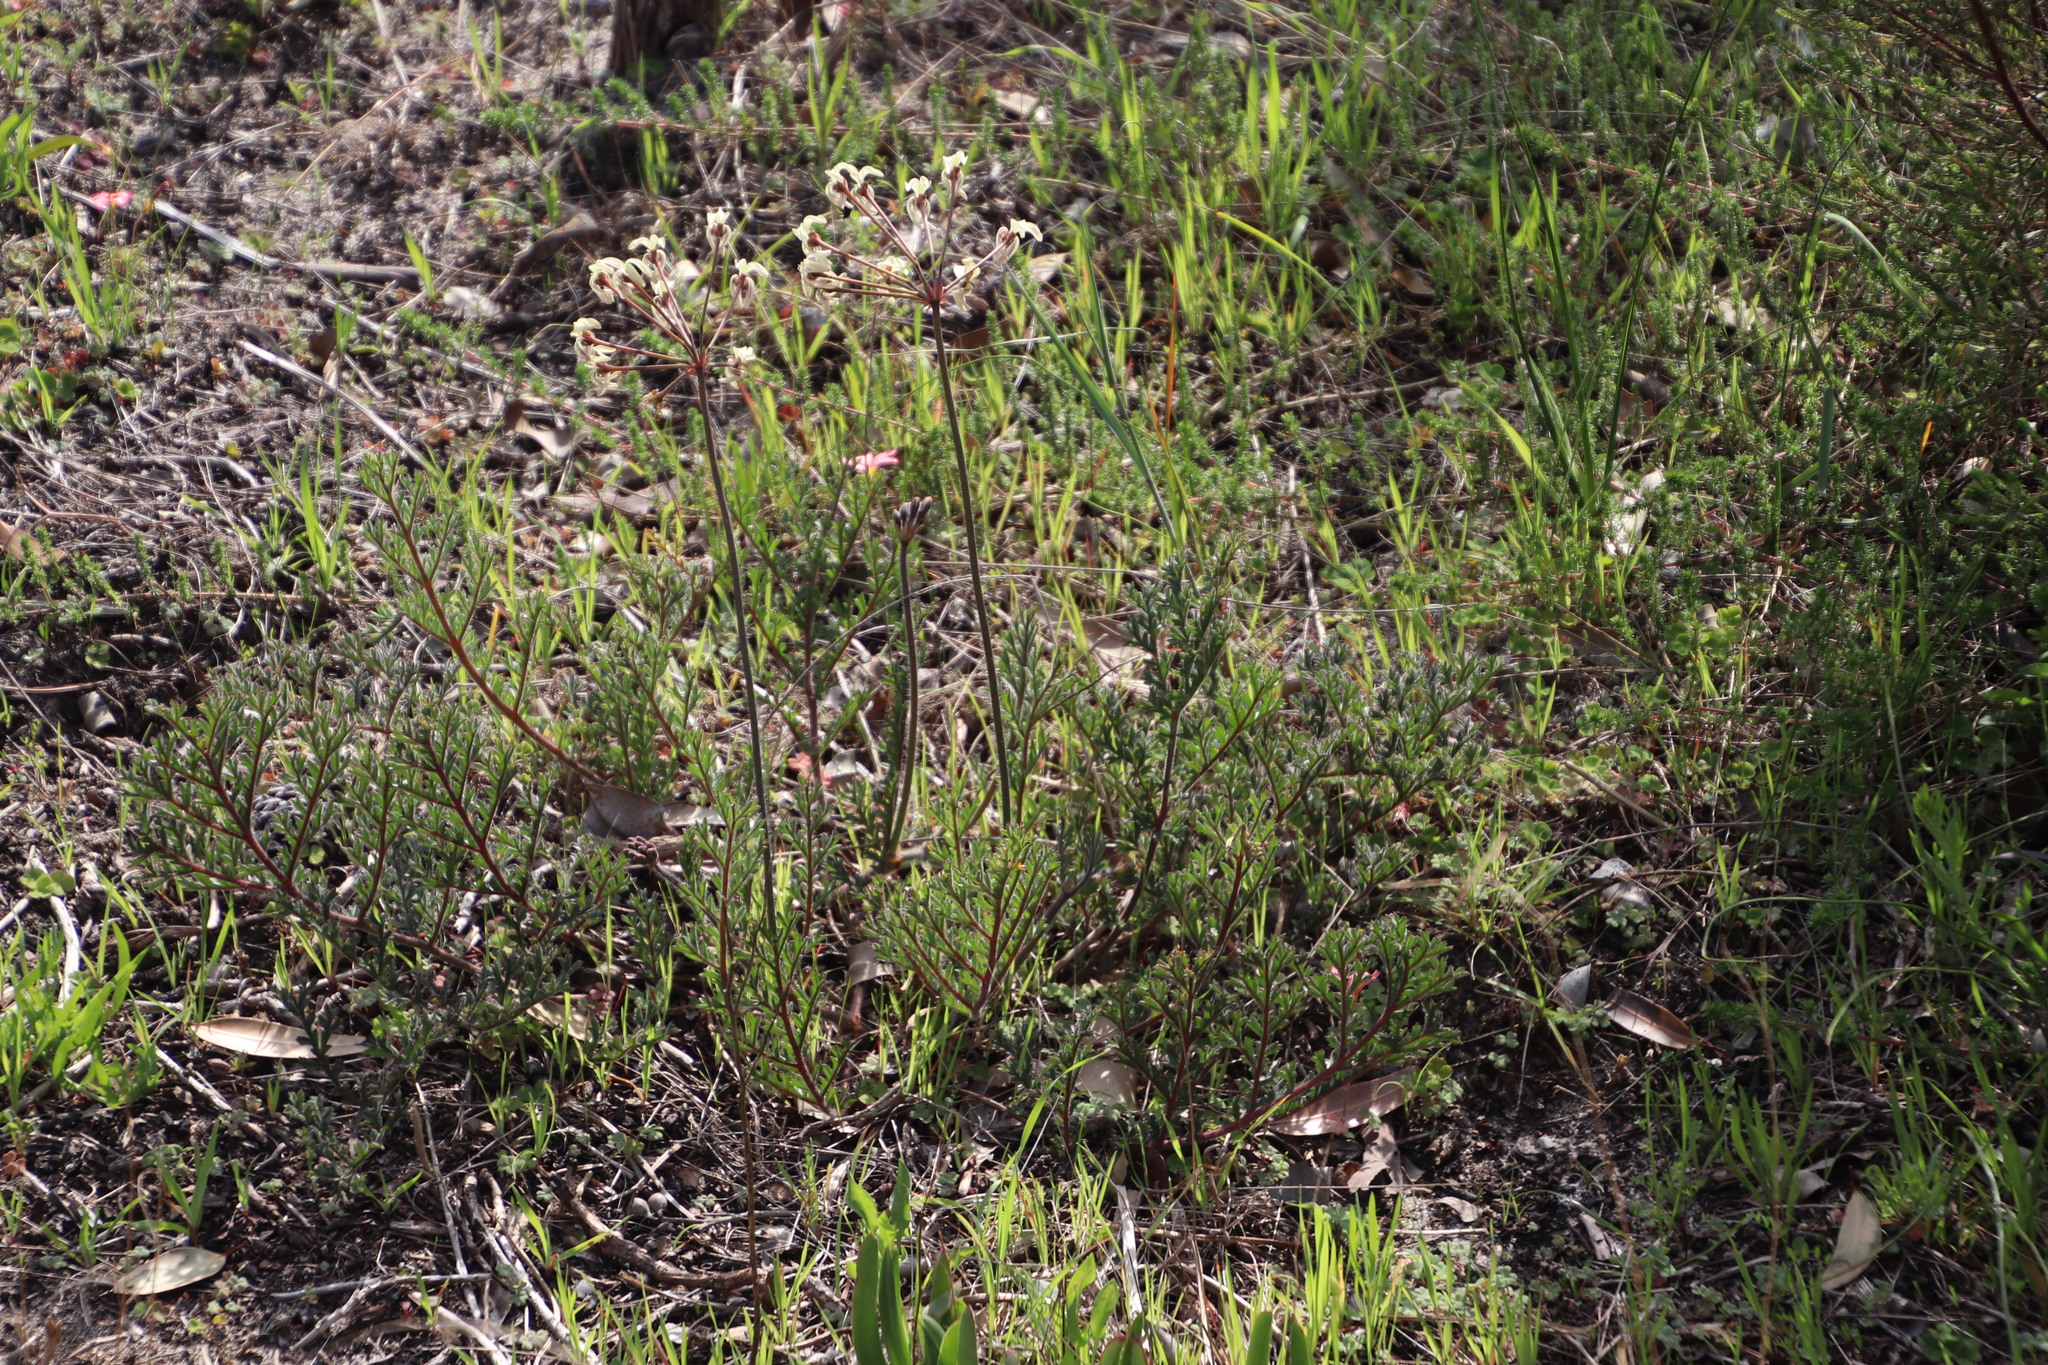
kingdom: Plantae
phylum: Tracheophyta
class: Magnoliopsida
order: Geraniales
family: Geraniaceae
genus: Pelargonium
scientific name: Pelargonium triste
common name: Night-scent pelargonium
